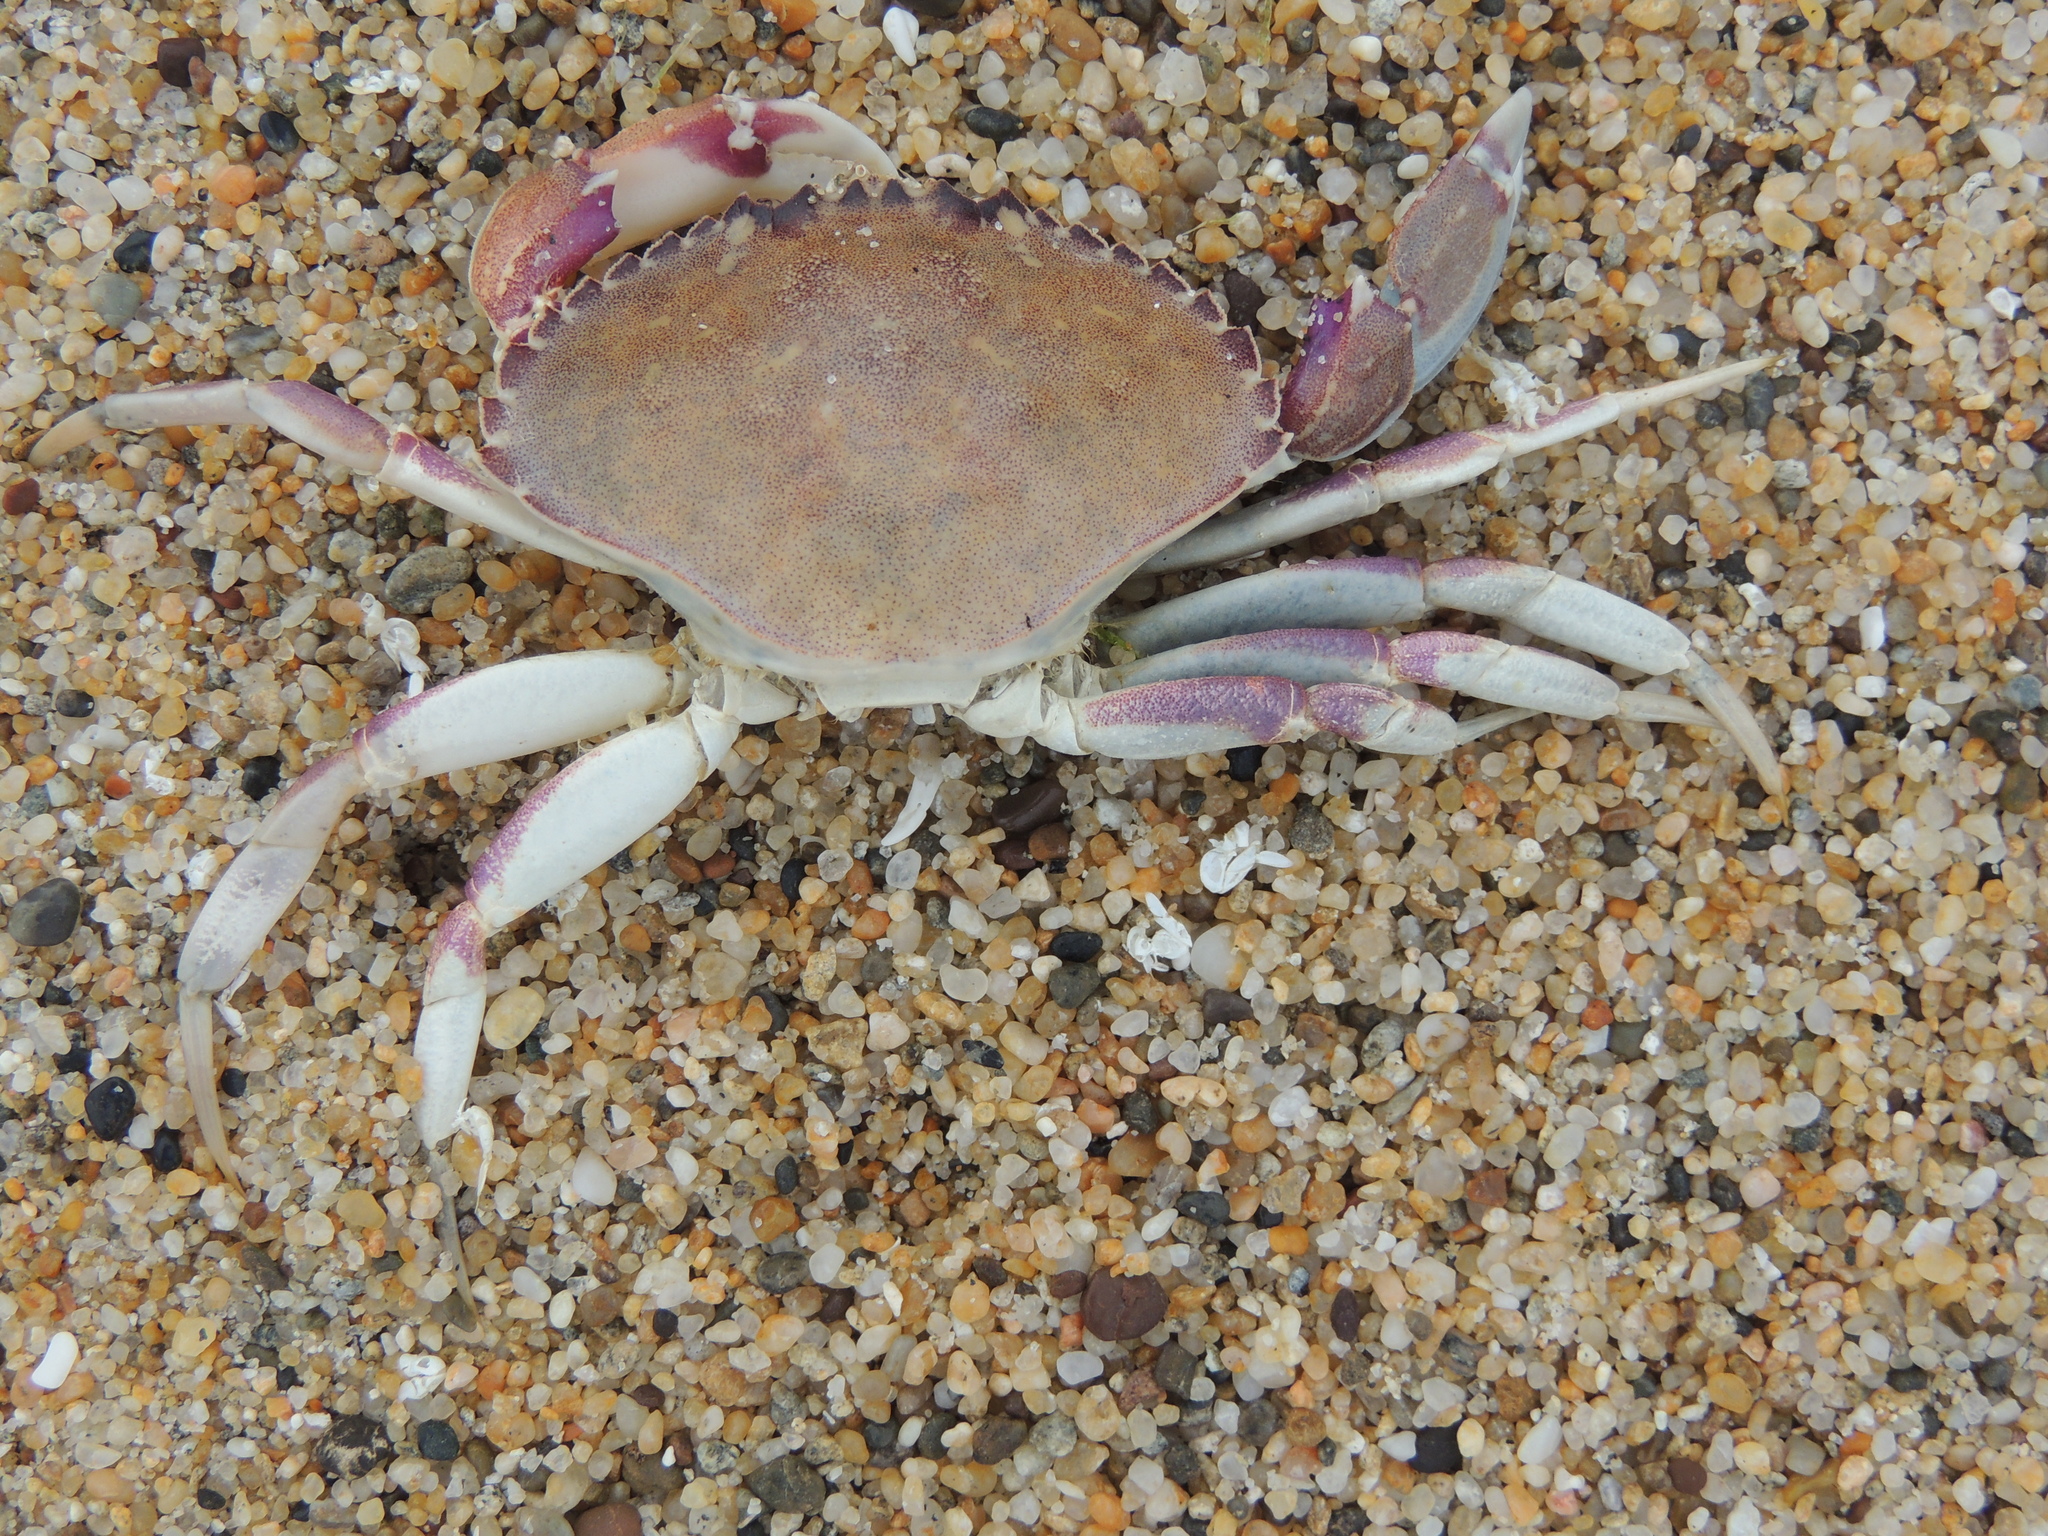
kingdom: Animalia
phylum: Arthropoda
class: Malacostraca
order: Decapoda
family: Cancridae
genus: Metacarcinus
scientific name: Metacarcinus gracilis
